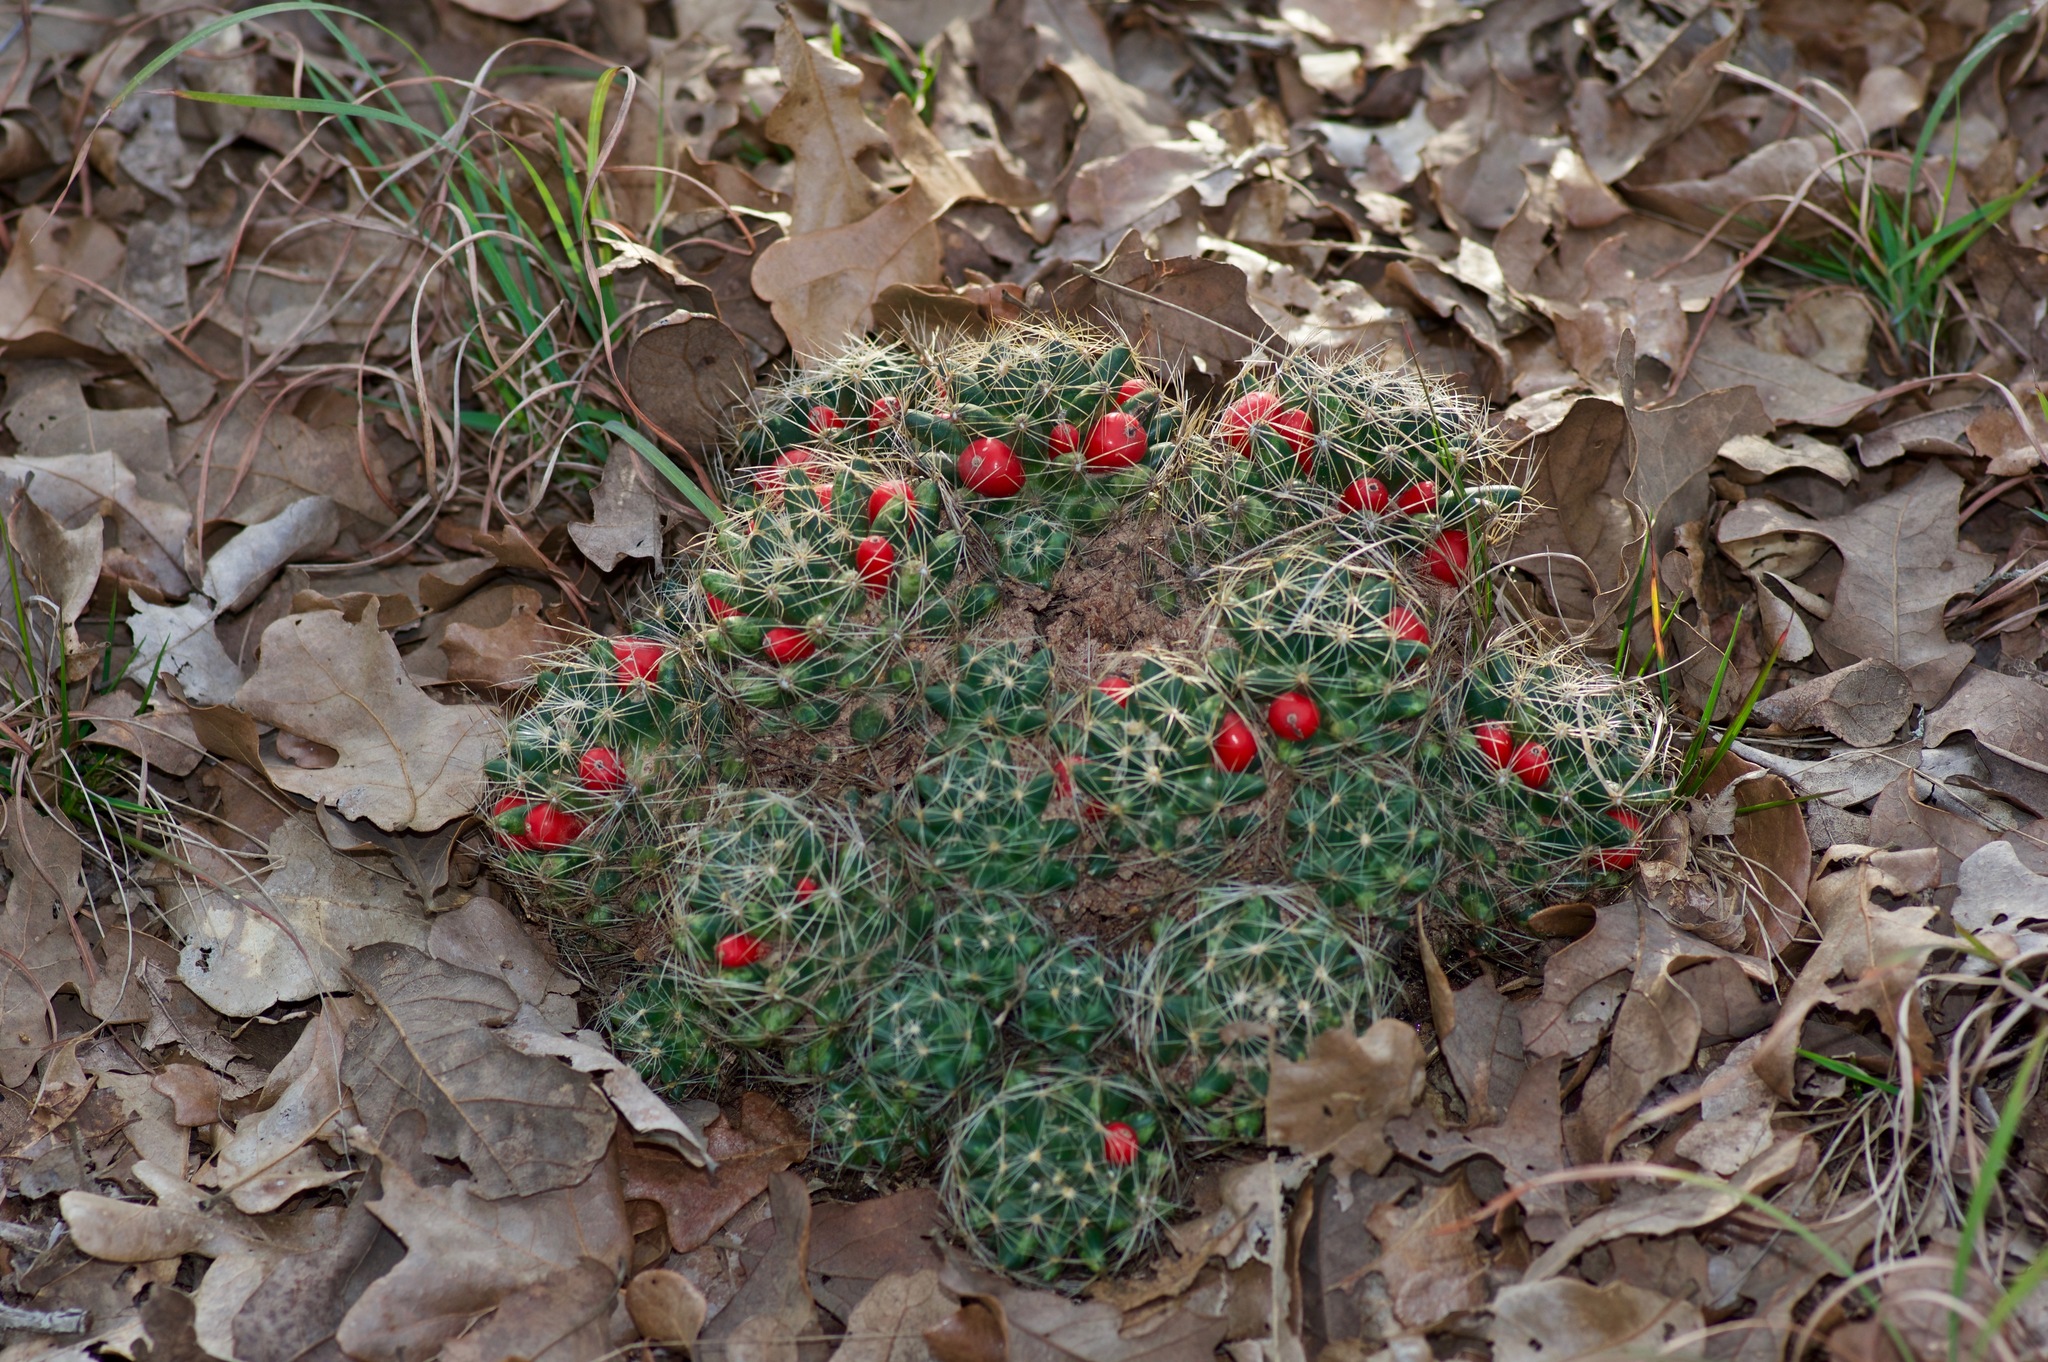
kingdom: Plantae
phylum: Tracheophyta
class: Magnoliopsida
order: Caryophyllales
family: Cactaceae
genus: Pelecyphora
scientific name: Pelecyphora missouriensis
